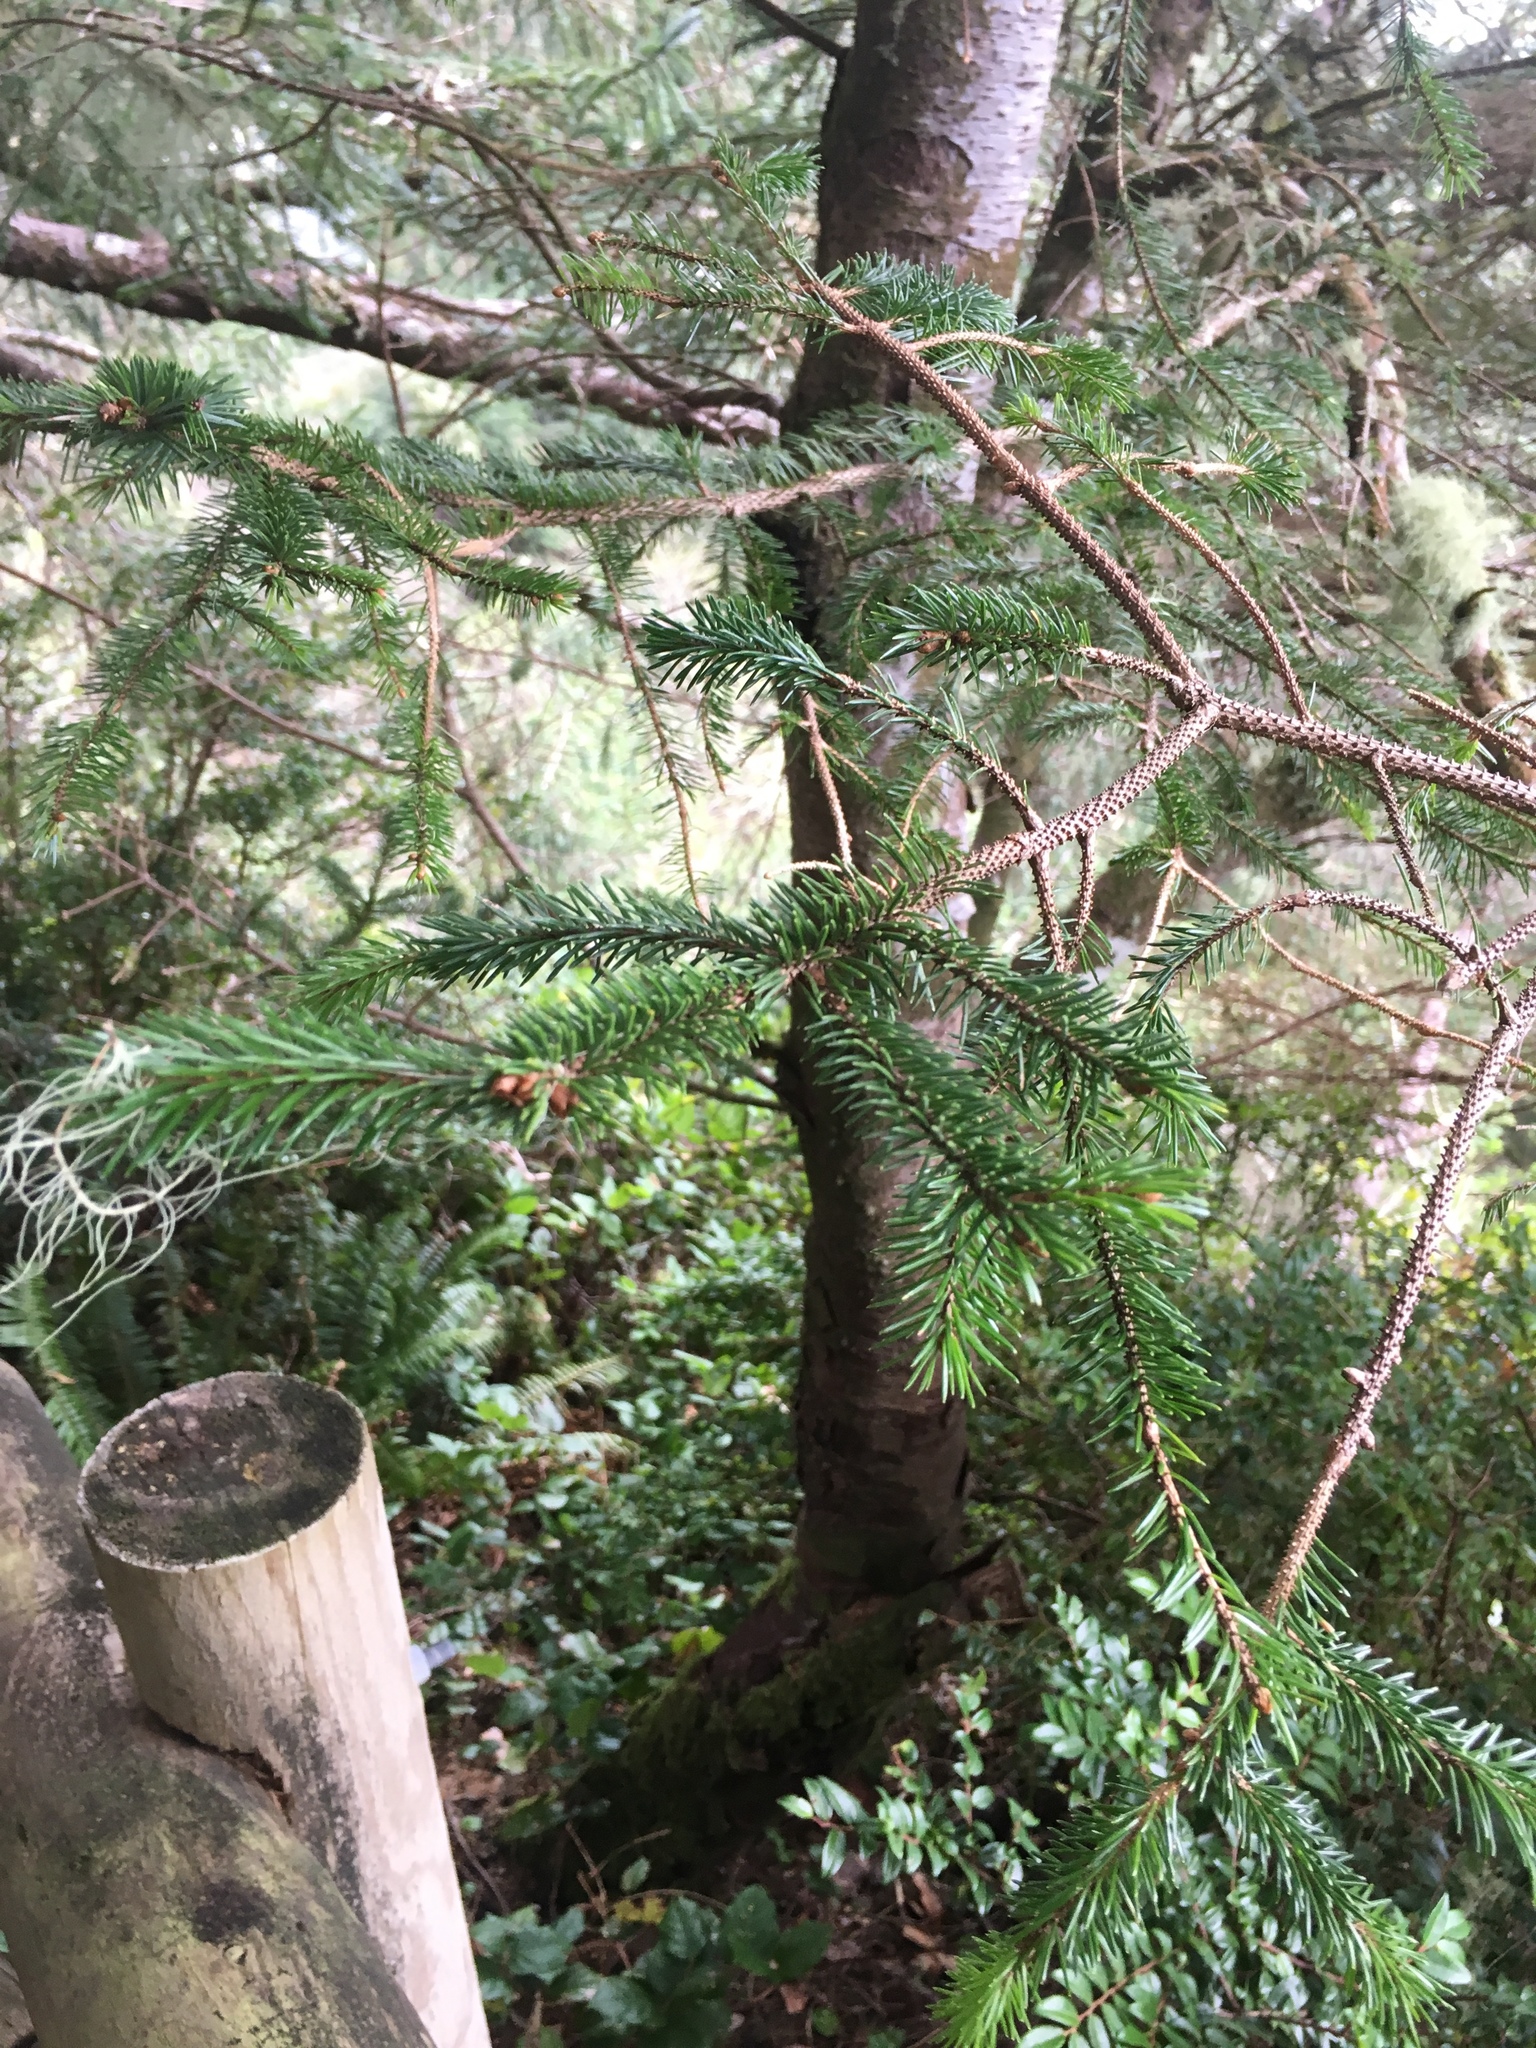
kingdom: Plantae
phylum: Tracheophyta
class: Pinopsida
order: Pinales
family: Pinaceae
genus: Picea
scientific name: Picea sitchensis
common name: Sitka spruce
